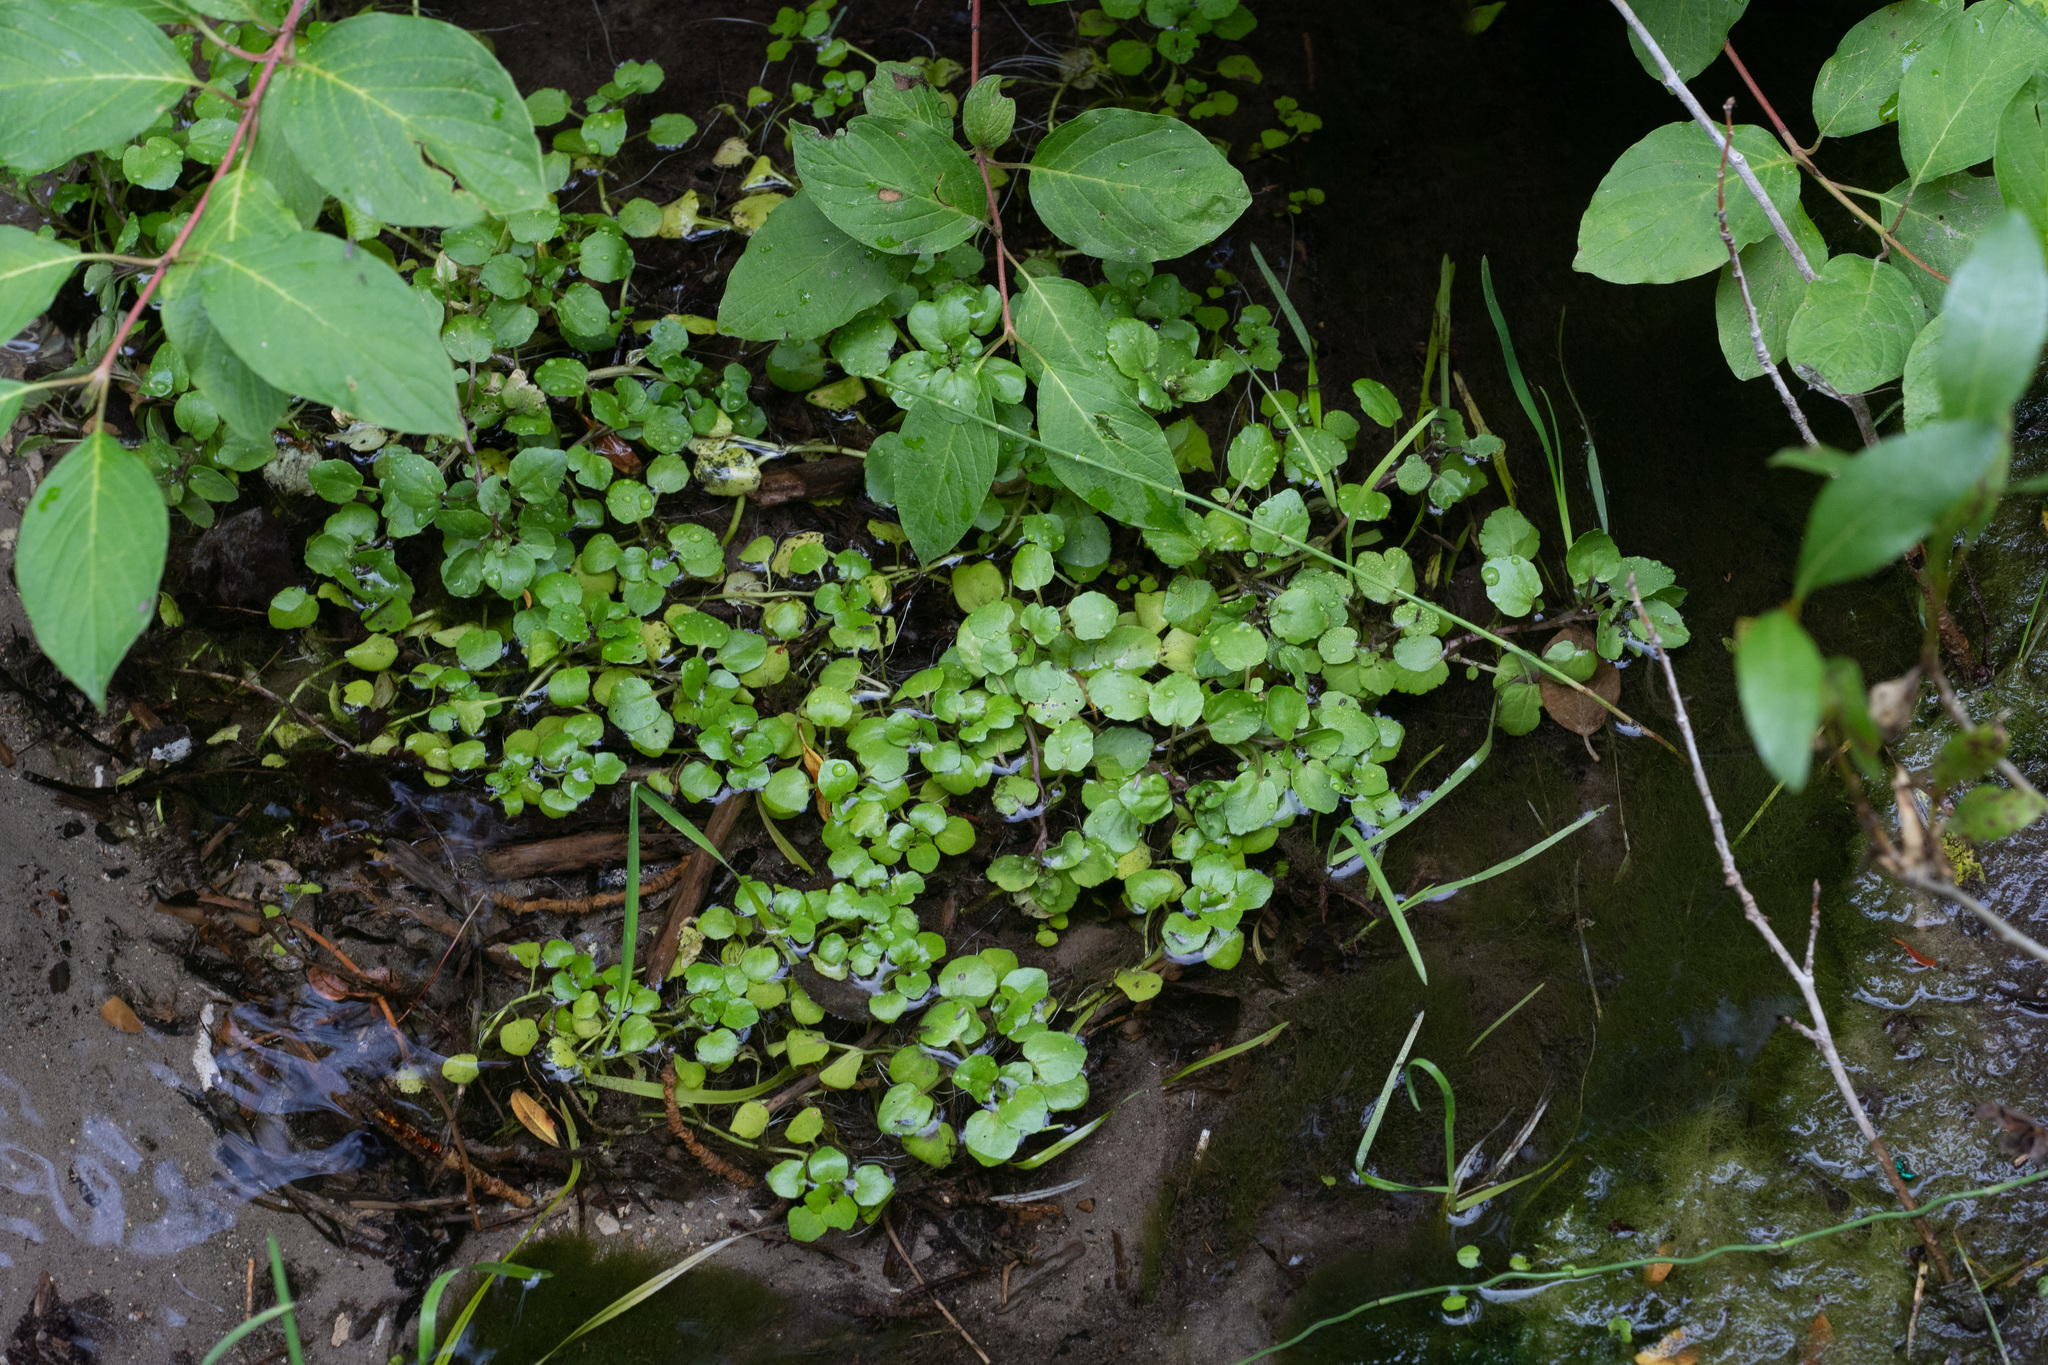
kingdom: Plantae
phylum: Tracheophyta
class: Magnoliopsida
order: Brassicales
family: Brassicaceae
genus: Nasturtium
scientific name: Nasturtium officinale
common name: Watercress
